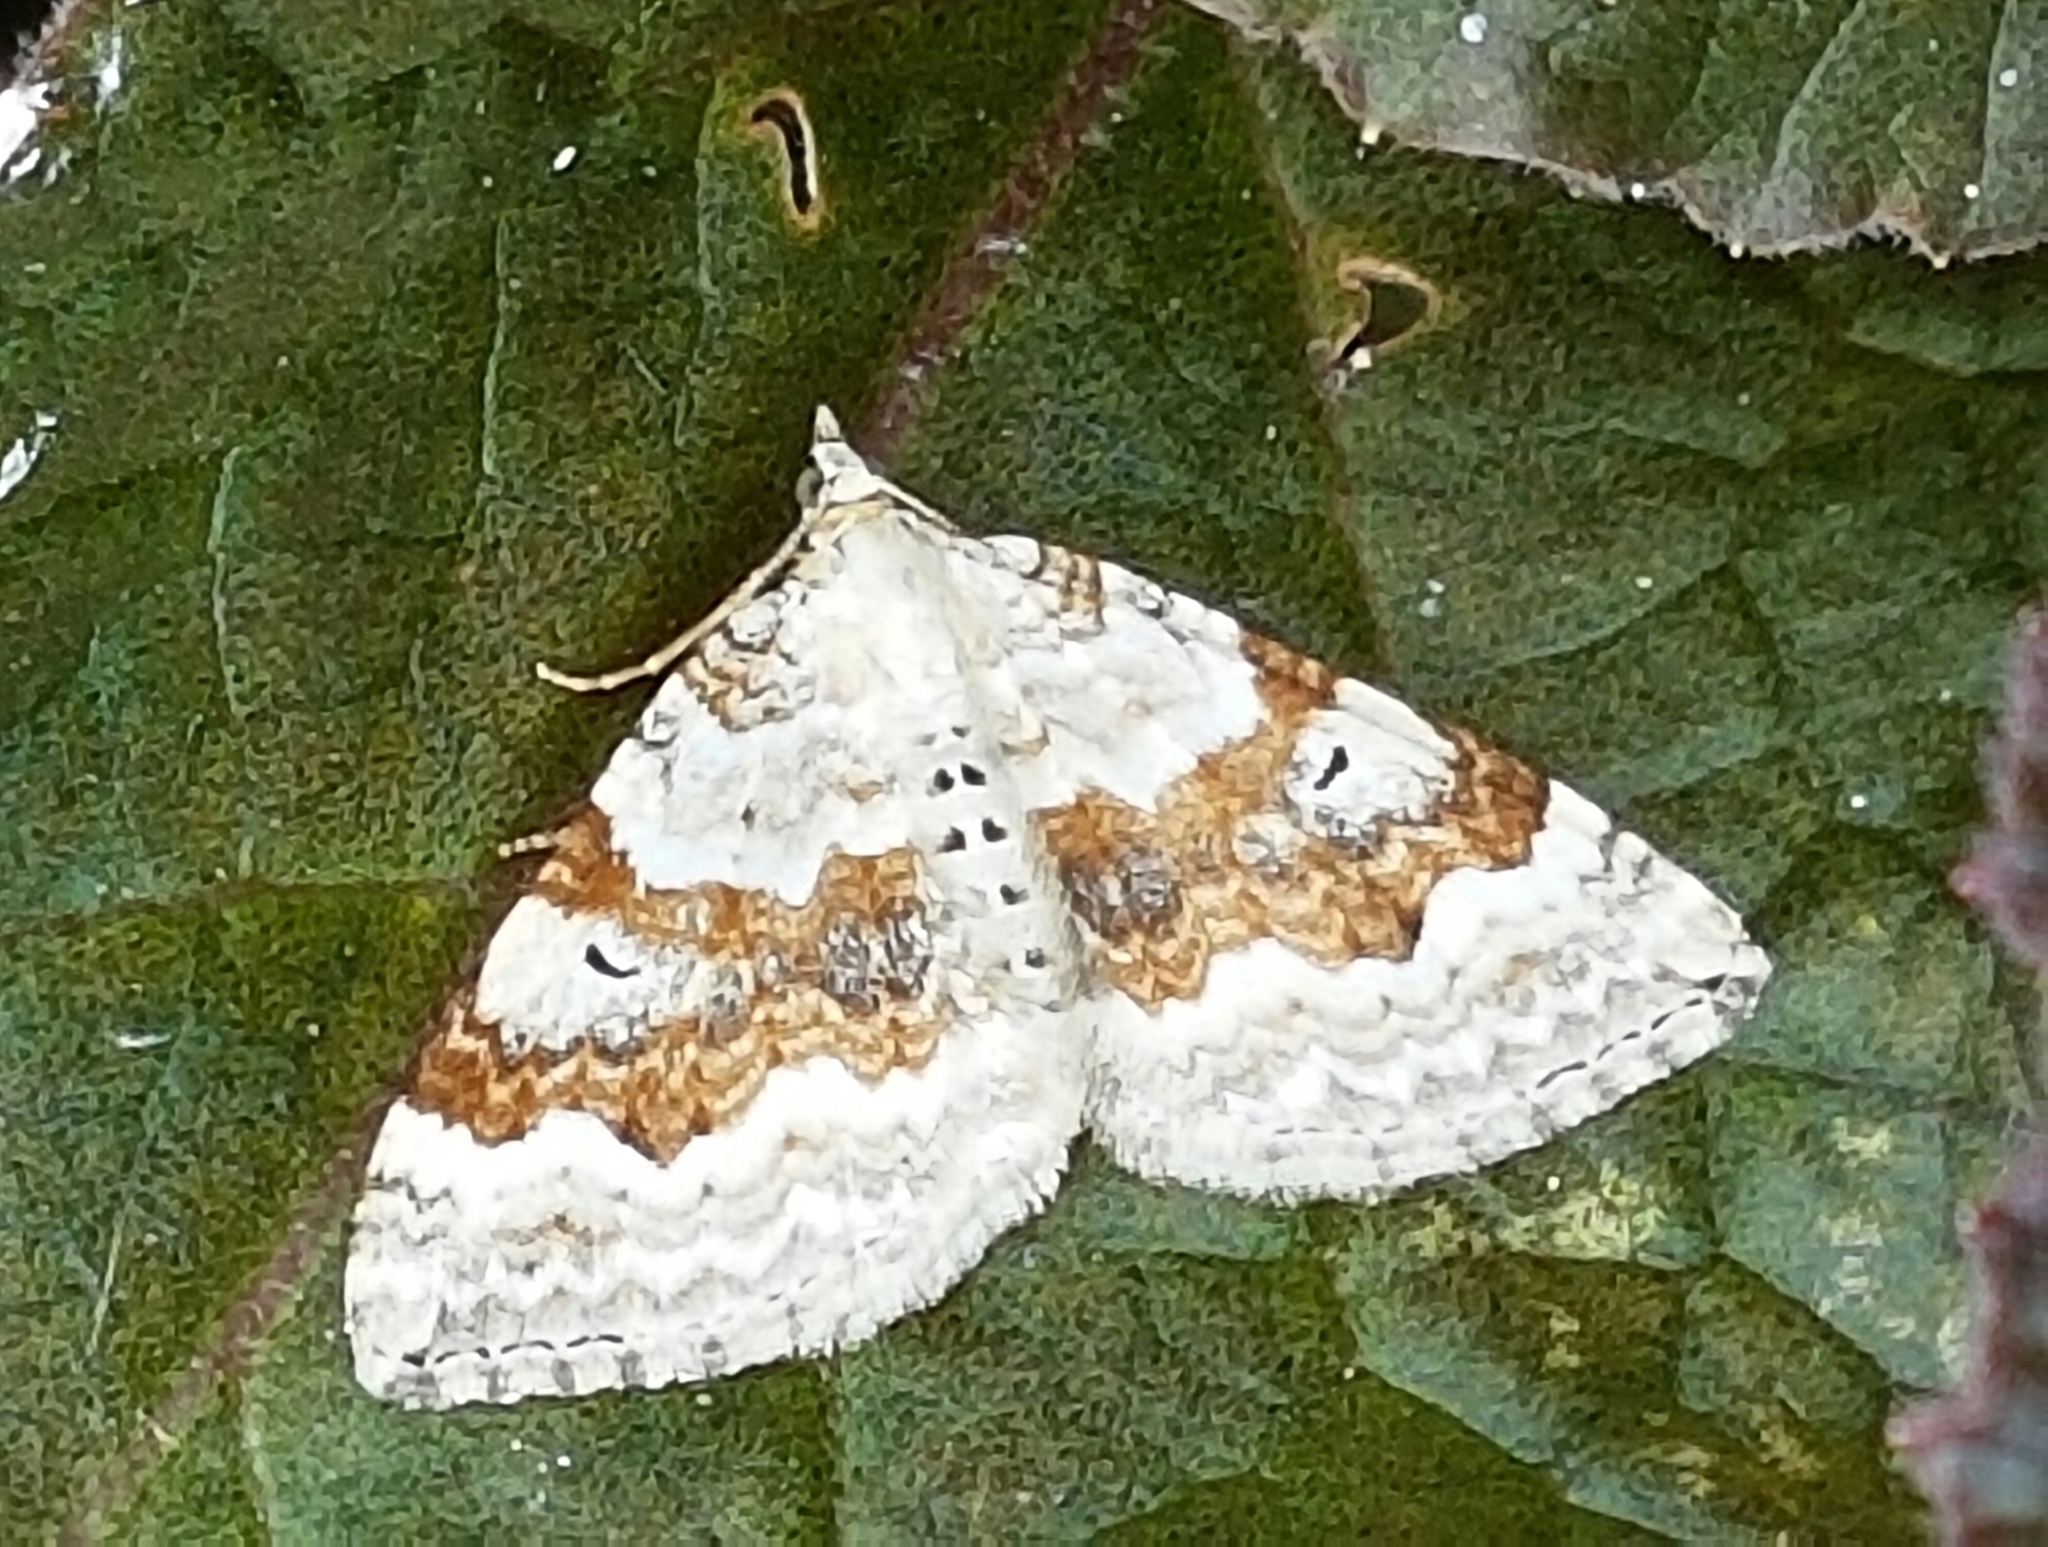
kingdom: Animalia
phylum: Arthropoda
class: Insecta
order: Lepidoptera
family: Geometridae
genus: Xanthorhoe
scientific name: Xanthorhoe montanata
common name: Silver-ground carpet
